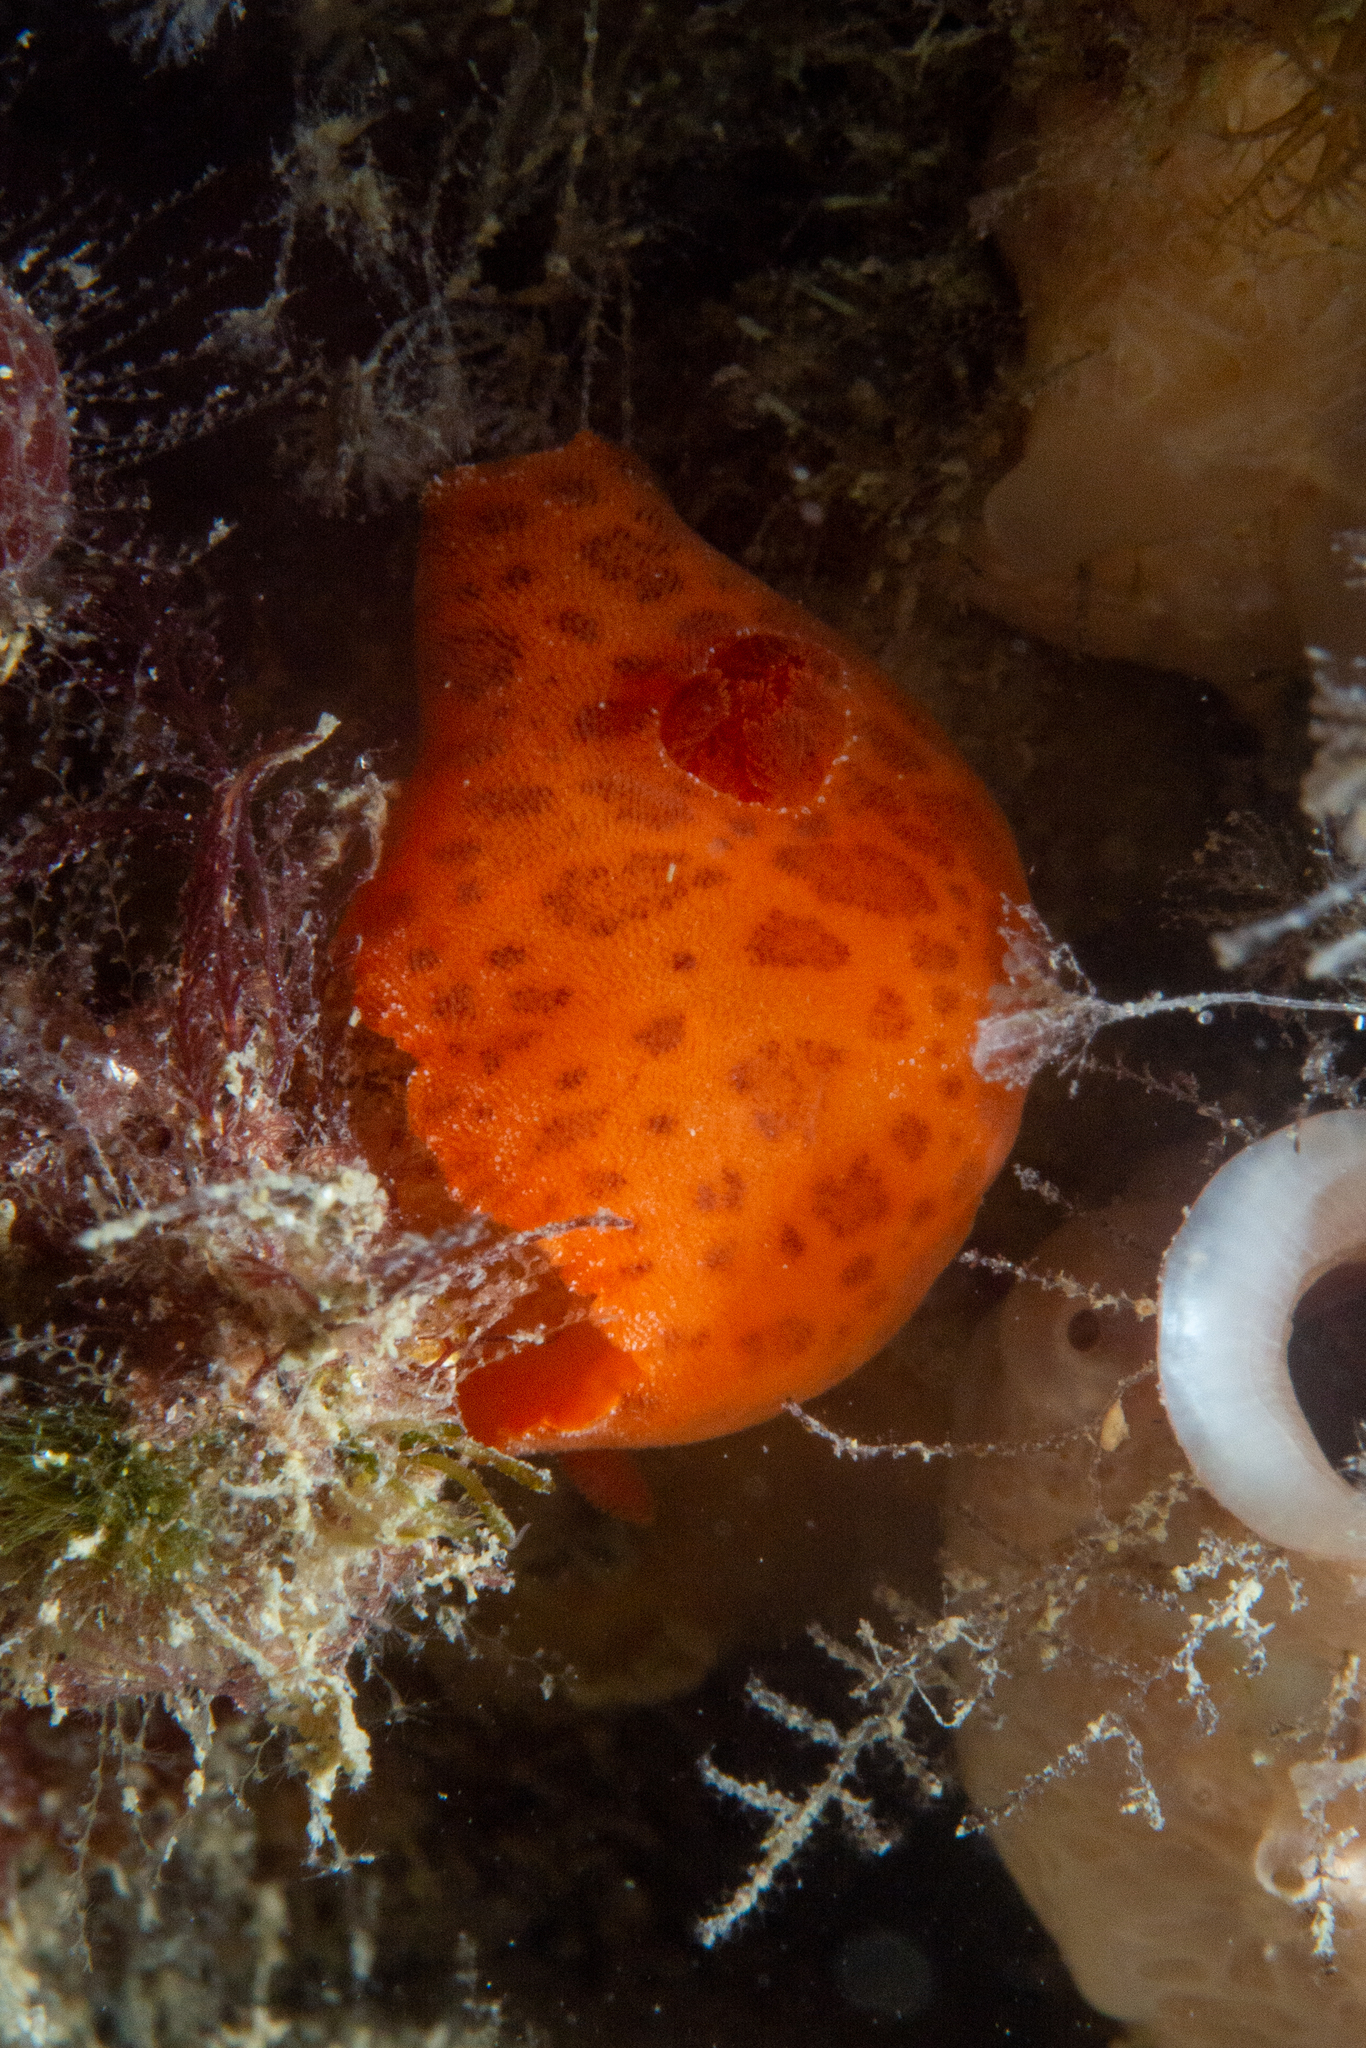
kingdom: Animalia
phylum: Mollusca
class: Gastropoda
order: Nudibranchia
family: Discodorididae
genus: Discodoris
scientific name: Discodoris paroa
